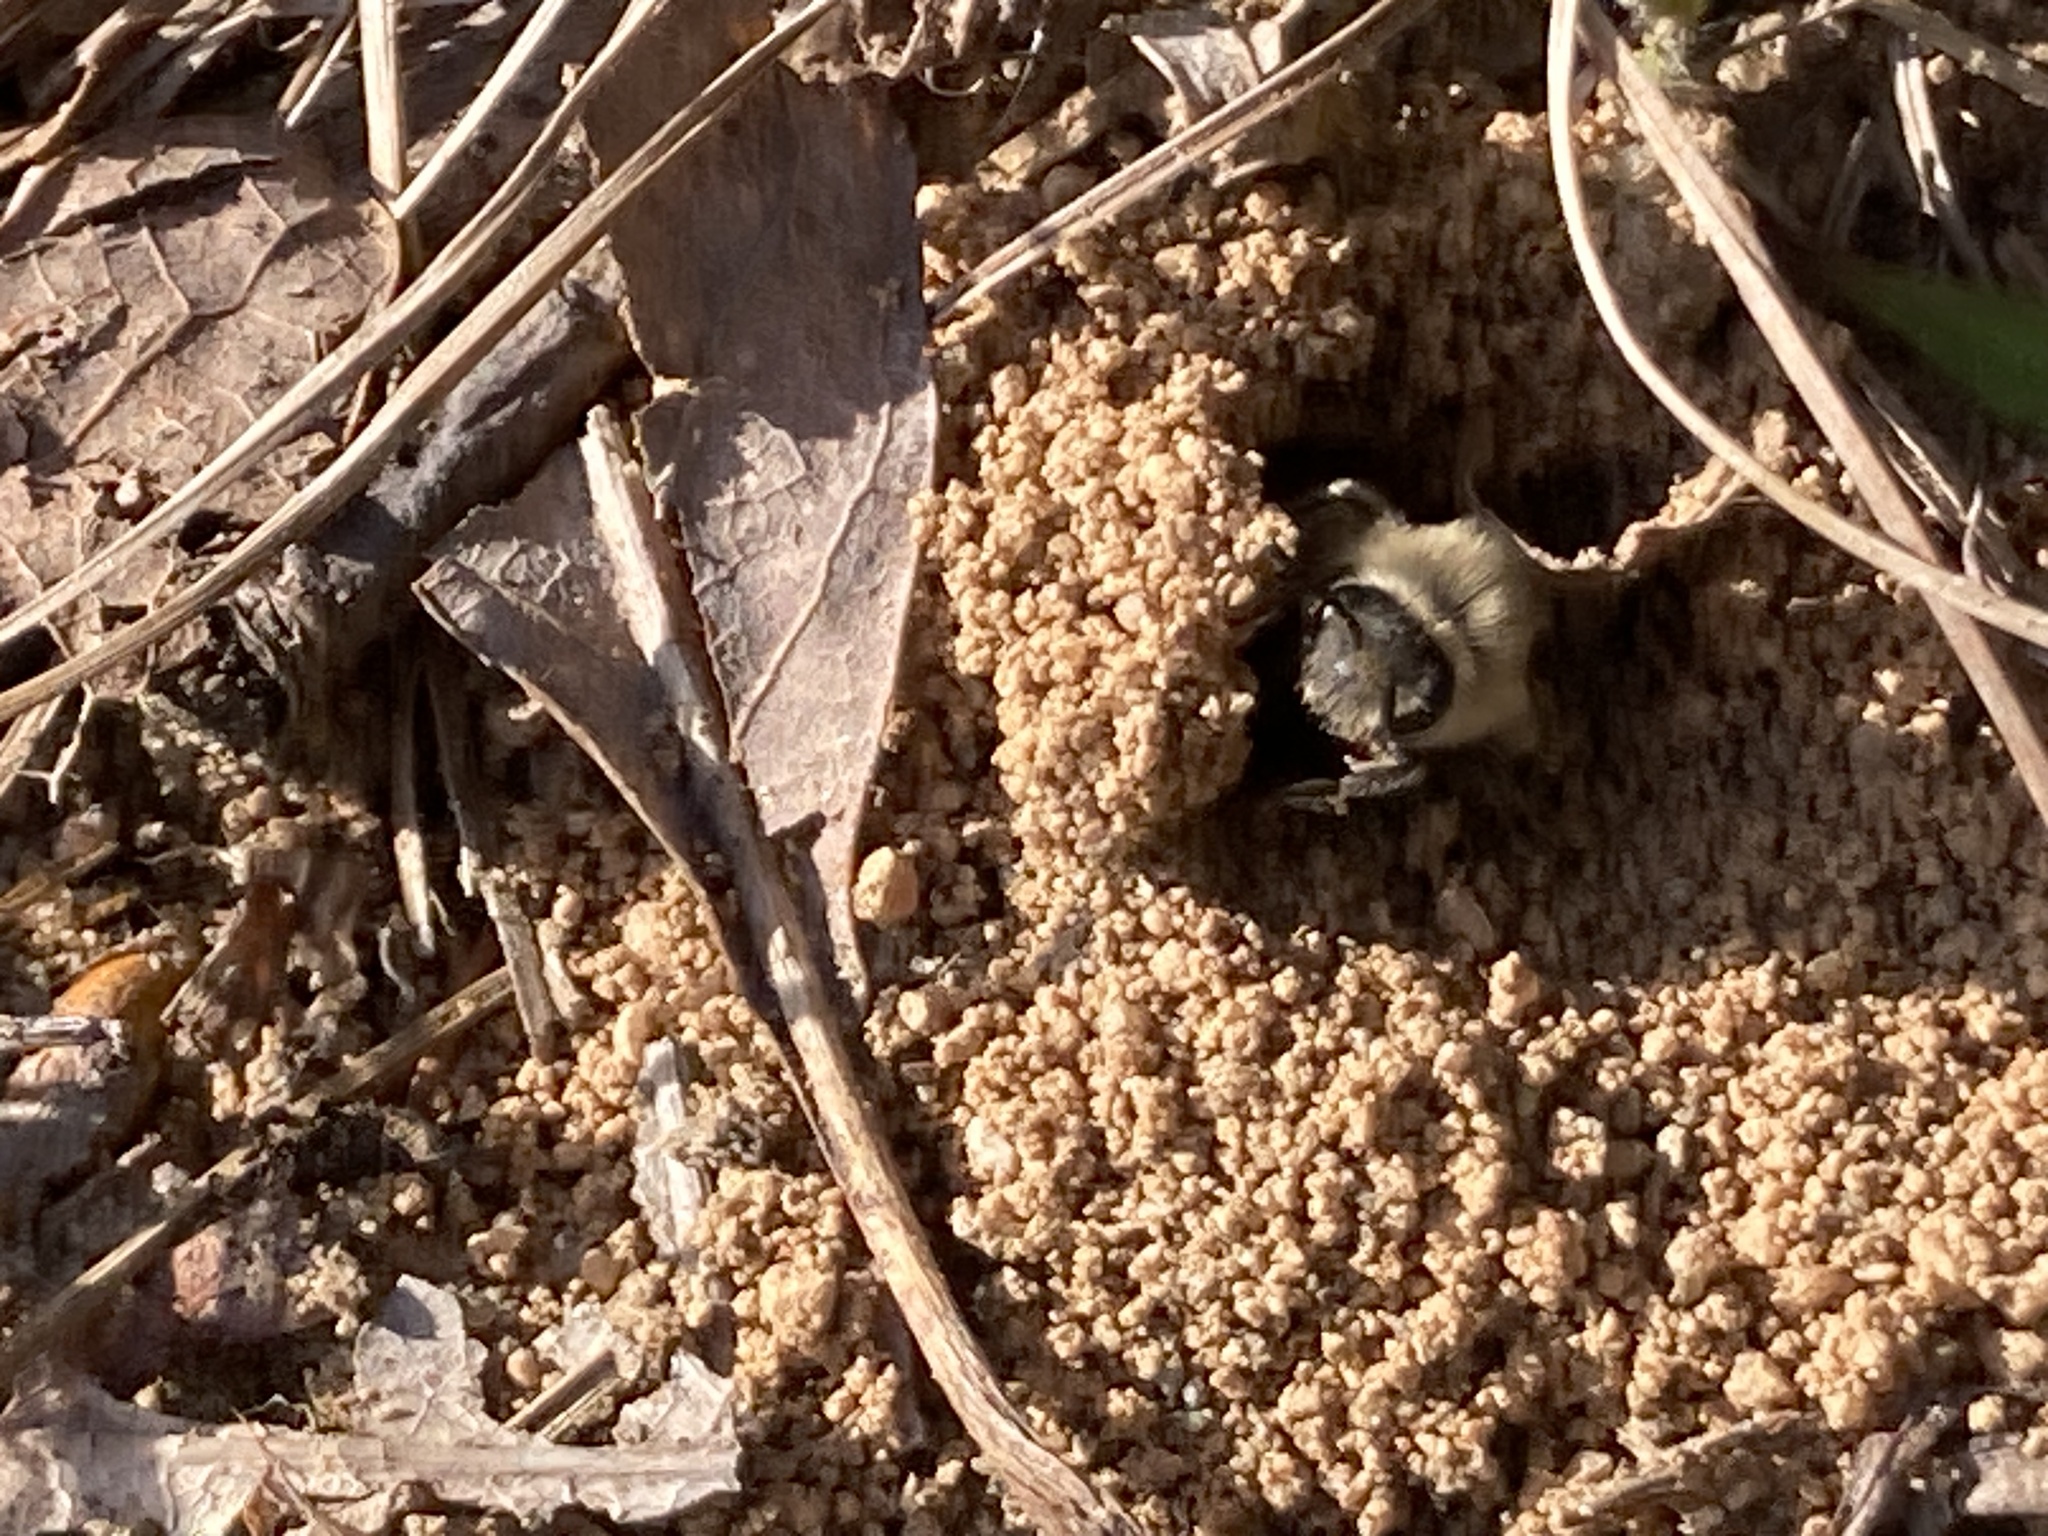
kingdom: Animalia
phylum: Arthropoda
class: Insecta
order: Hymenoptera
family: Colletidae
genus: Colletes
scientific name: Colletes inaequalis
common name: Unequal cellophane bee
